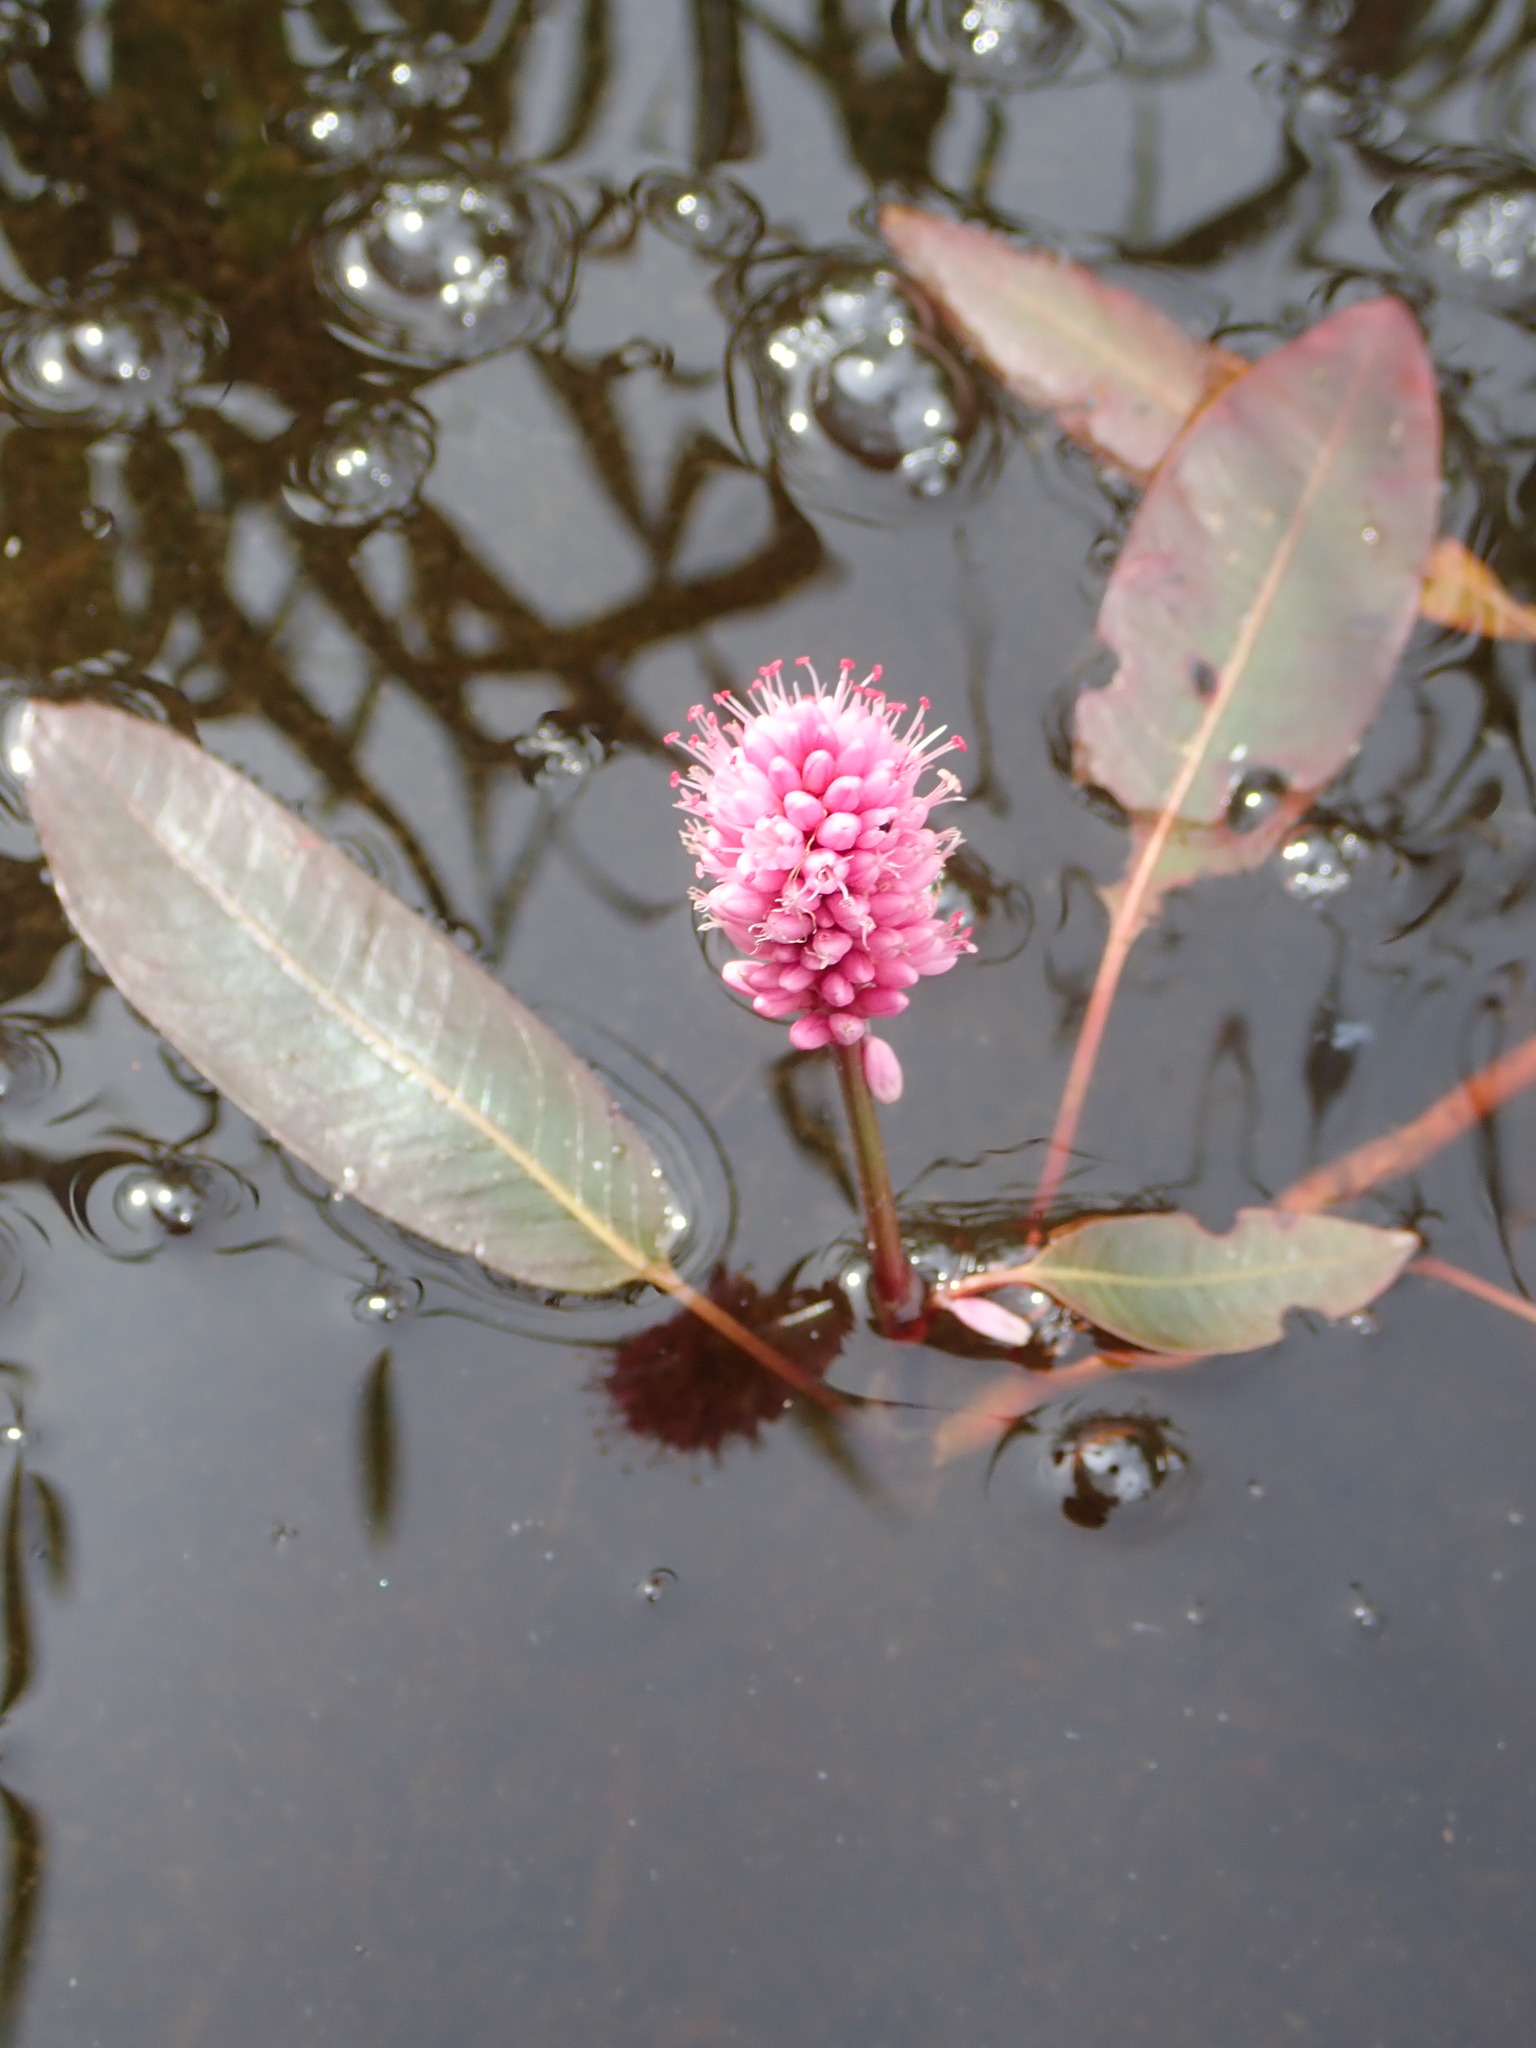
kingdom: Plantae
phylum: Tracheophyta
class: Magnoliopsida
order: Caryophyllales
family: Polygonaceae
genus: Persicaria
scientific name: Persicaria amphibia
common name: Amphibious bistort
